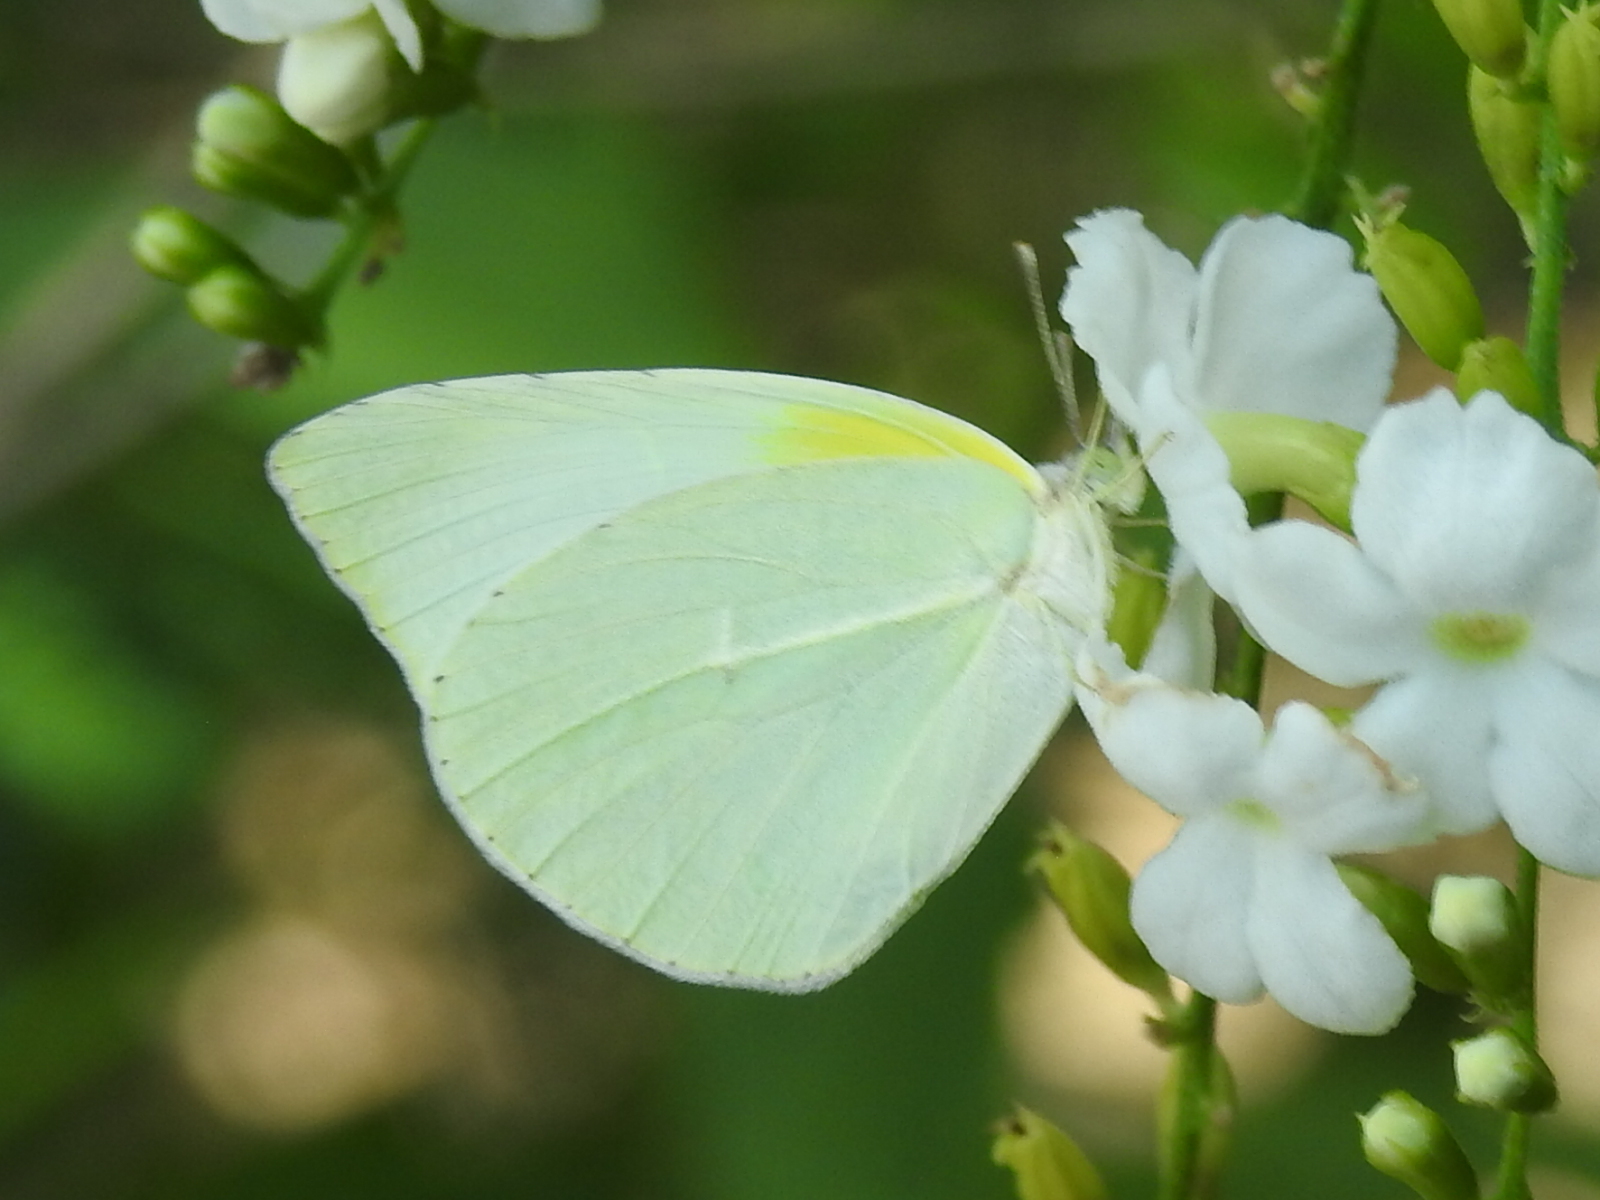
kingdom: Animalia
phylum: Arthropoda
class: Insecta
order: Lepidoptera
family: Pieridae
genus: Kricogonia
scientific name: Kricogonia lyside
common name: Guayacan sulphur,
